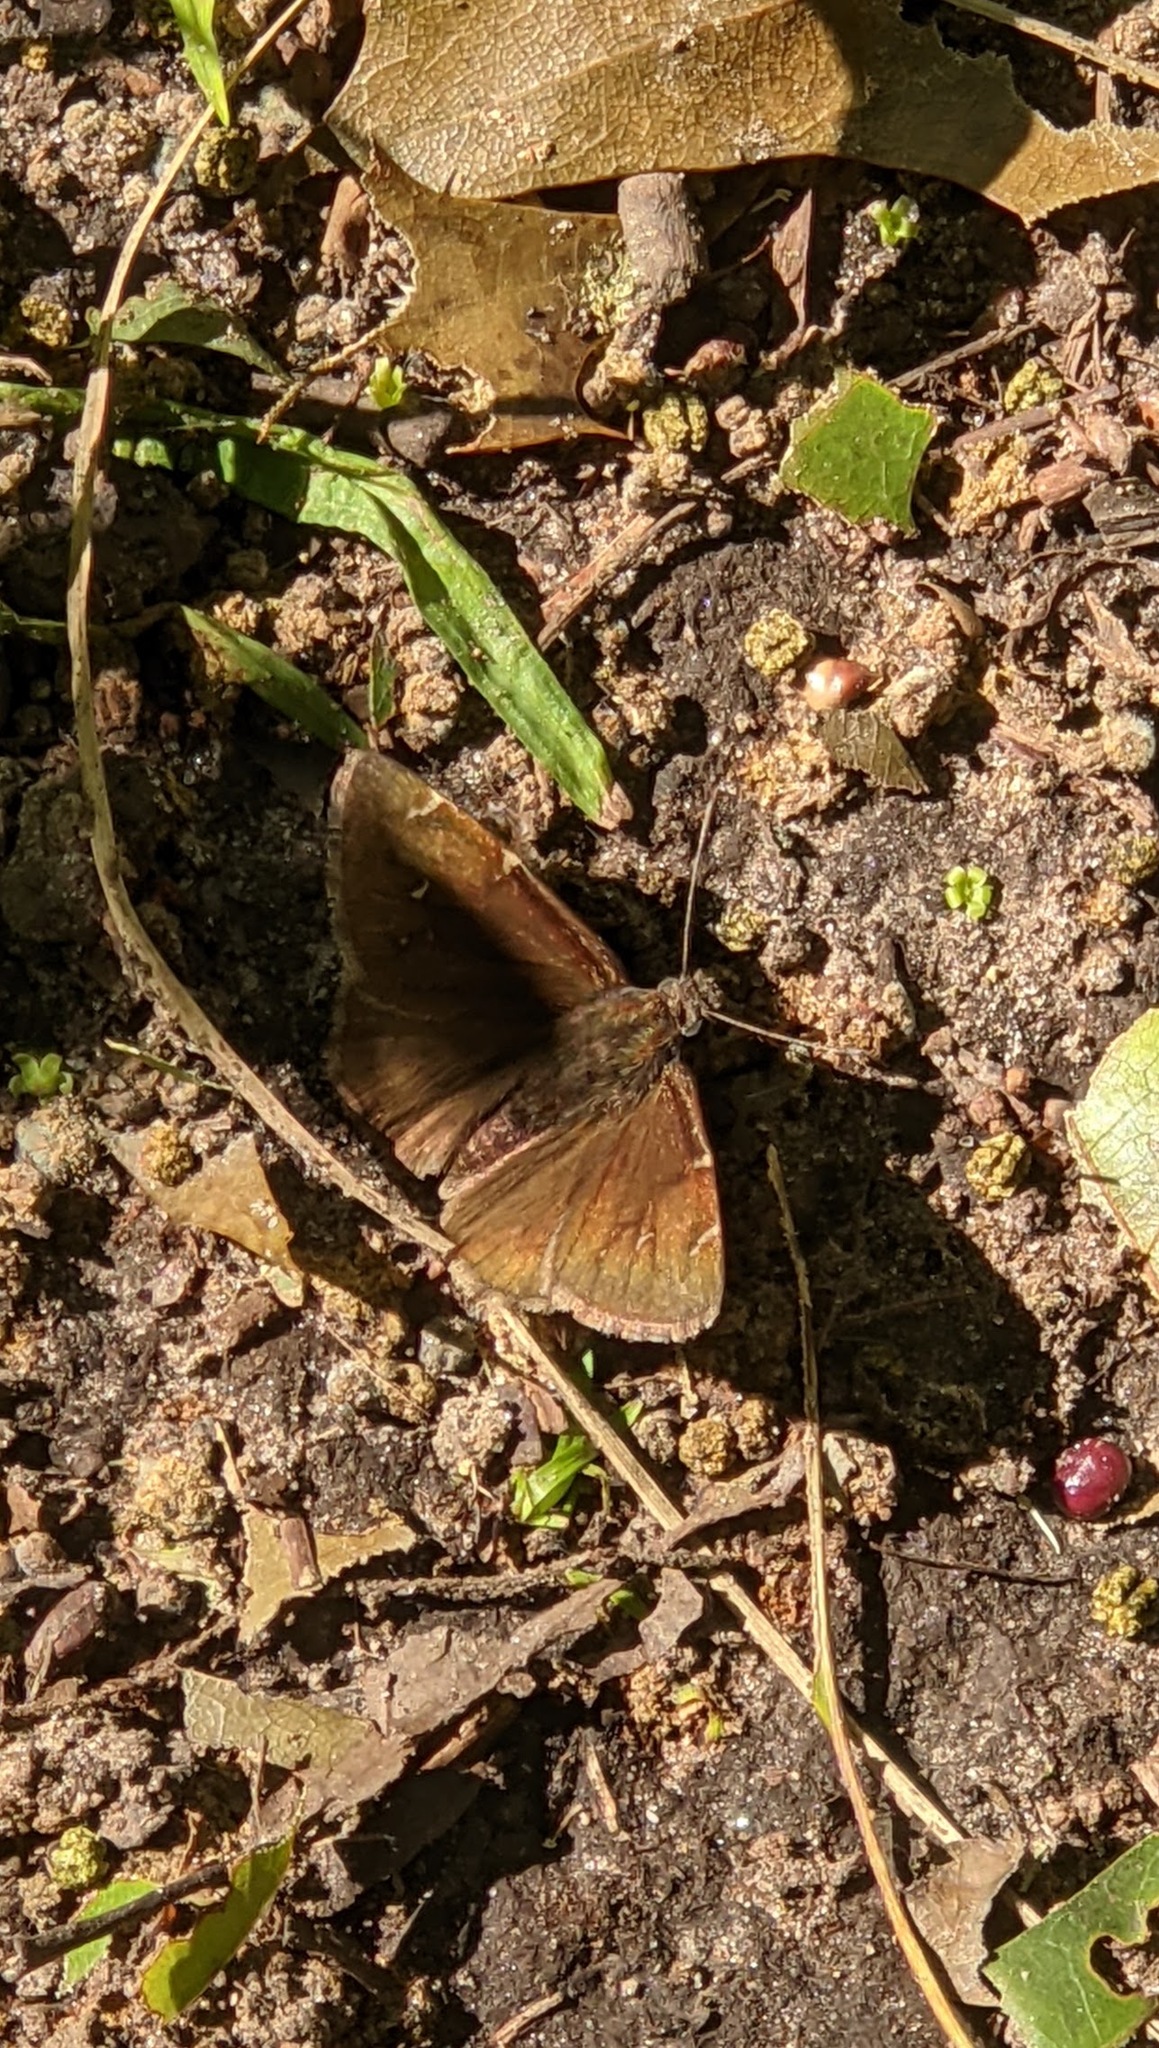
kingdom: Animalia
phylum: Arthropoda
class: Insecta
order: Lepidoptera
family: Hesperiidae
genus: Thorybes
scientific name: Thorybes pylades
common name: Northern cloudywing
